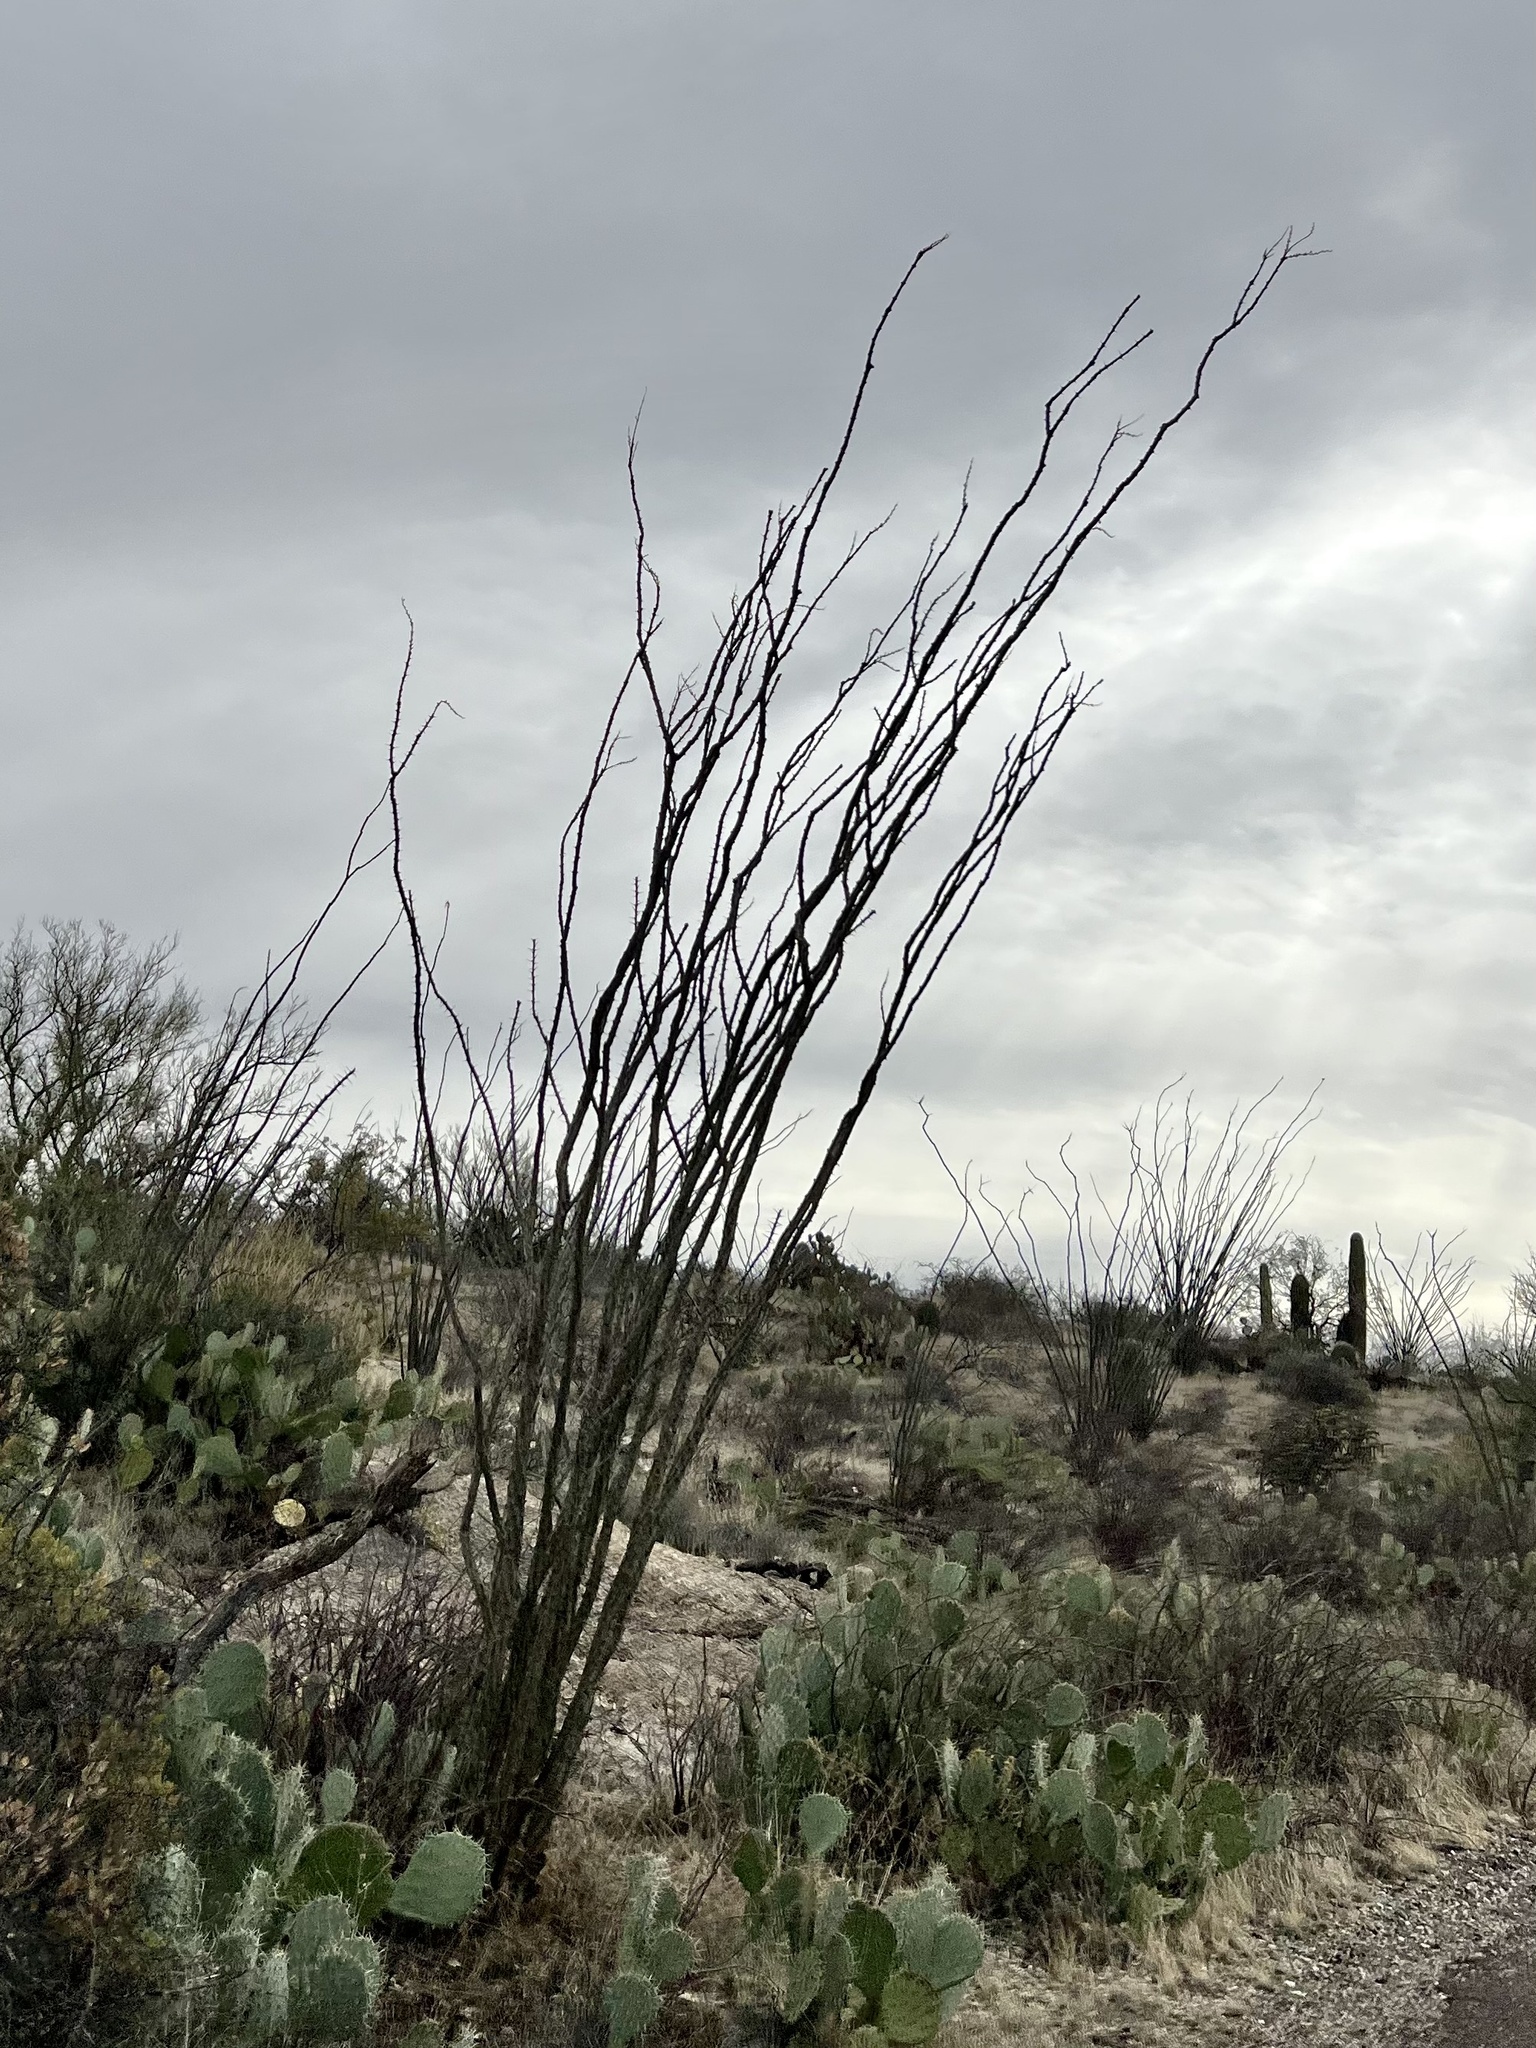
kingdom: Plantae
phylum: Tracheophyta
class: Magnoliopsida
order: Ericales
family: Fouquieriaceae
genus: Fouquieria
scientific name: Fouquieria splendens
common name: Vine-cactus
